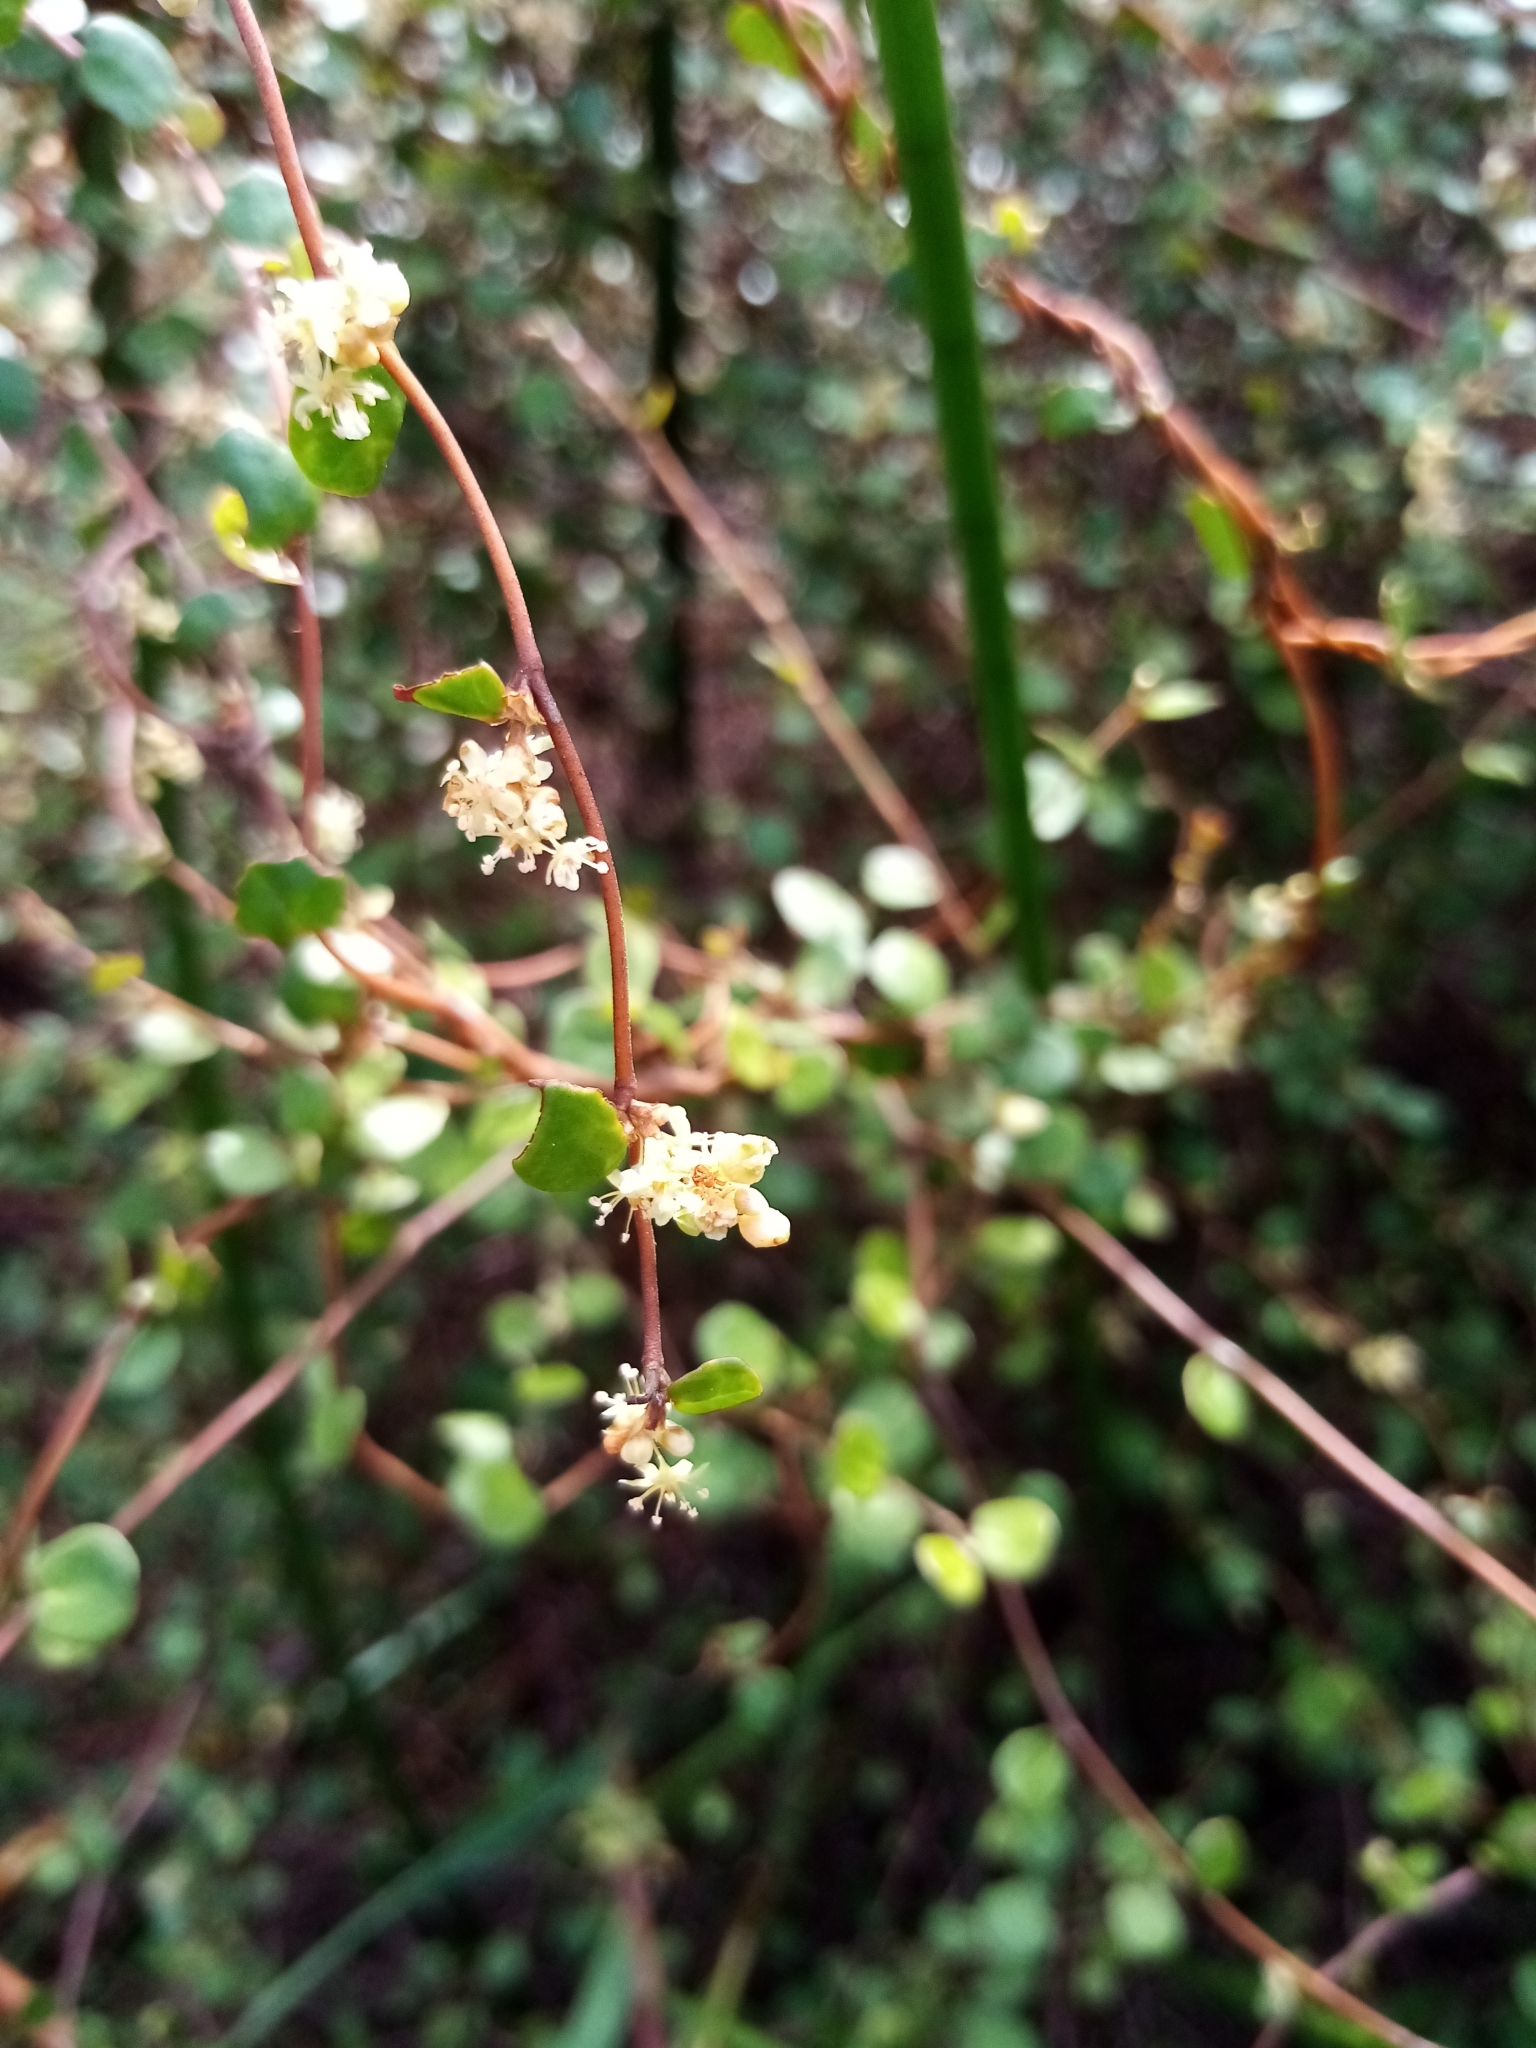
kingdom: Plantae
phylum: Tracheophyta
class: Magnoliopsida
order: Caryophyllales
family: Polygonaceae
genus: Muehlenbeckia
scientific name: Muehlenbeckia complexa
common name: Wireplant
